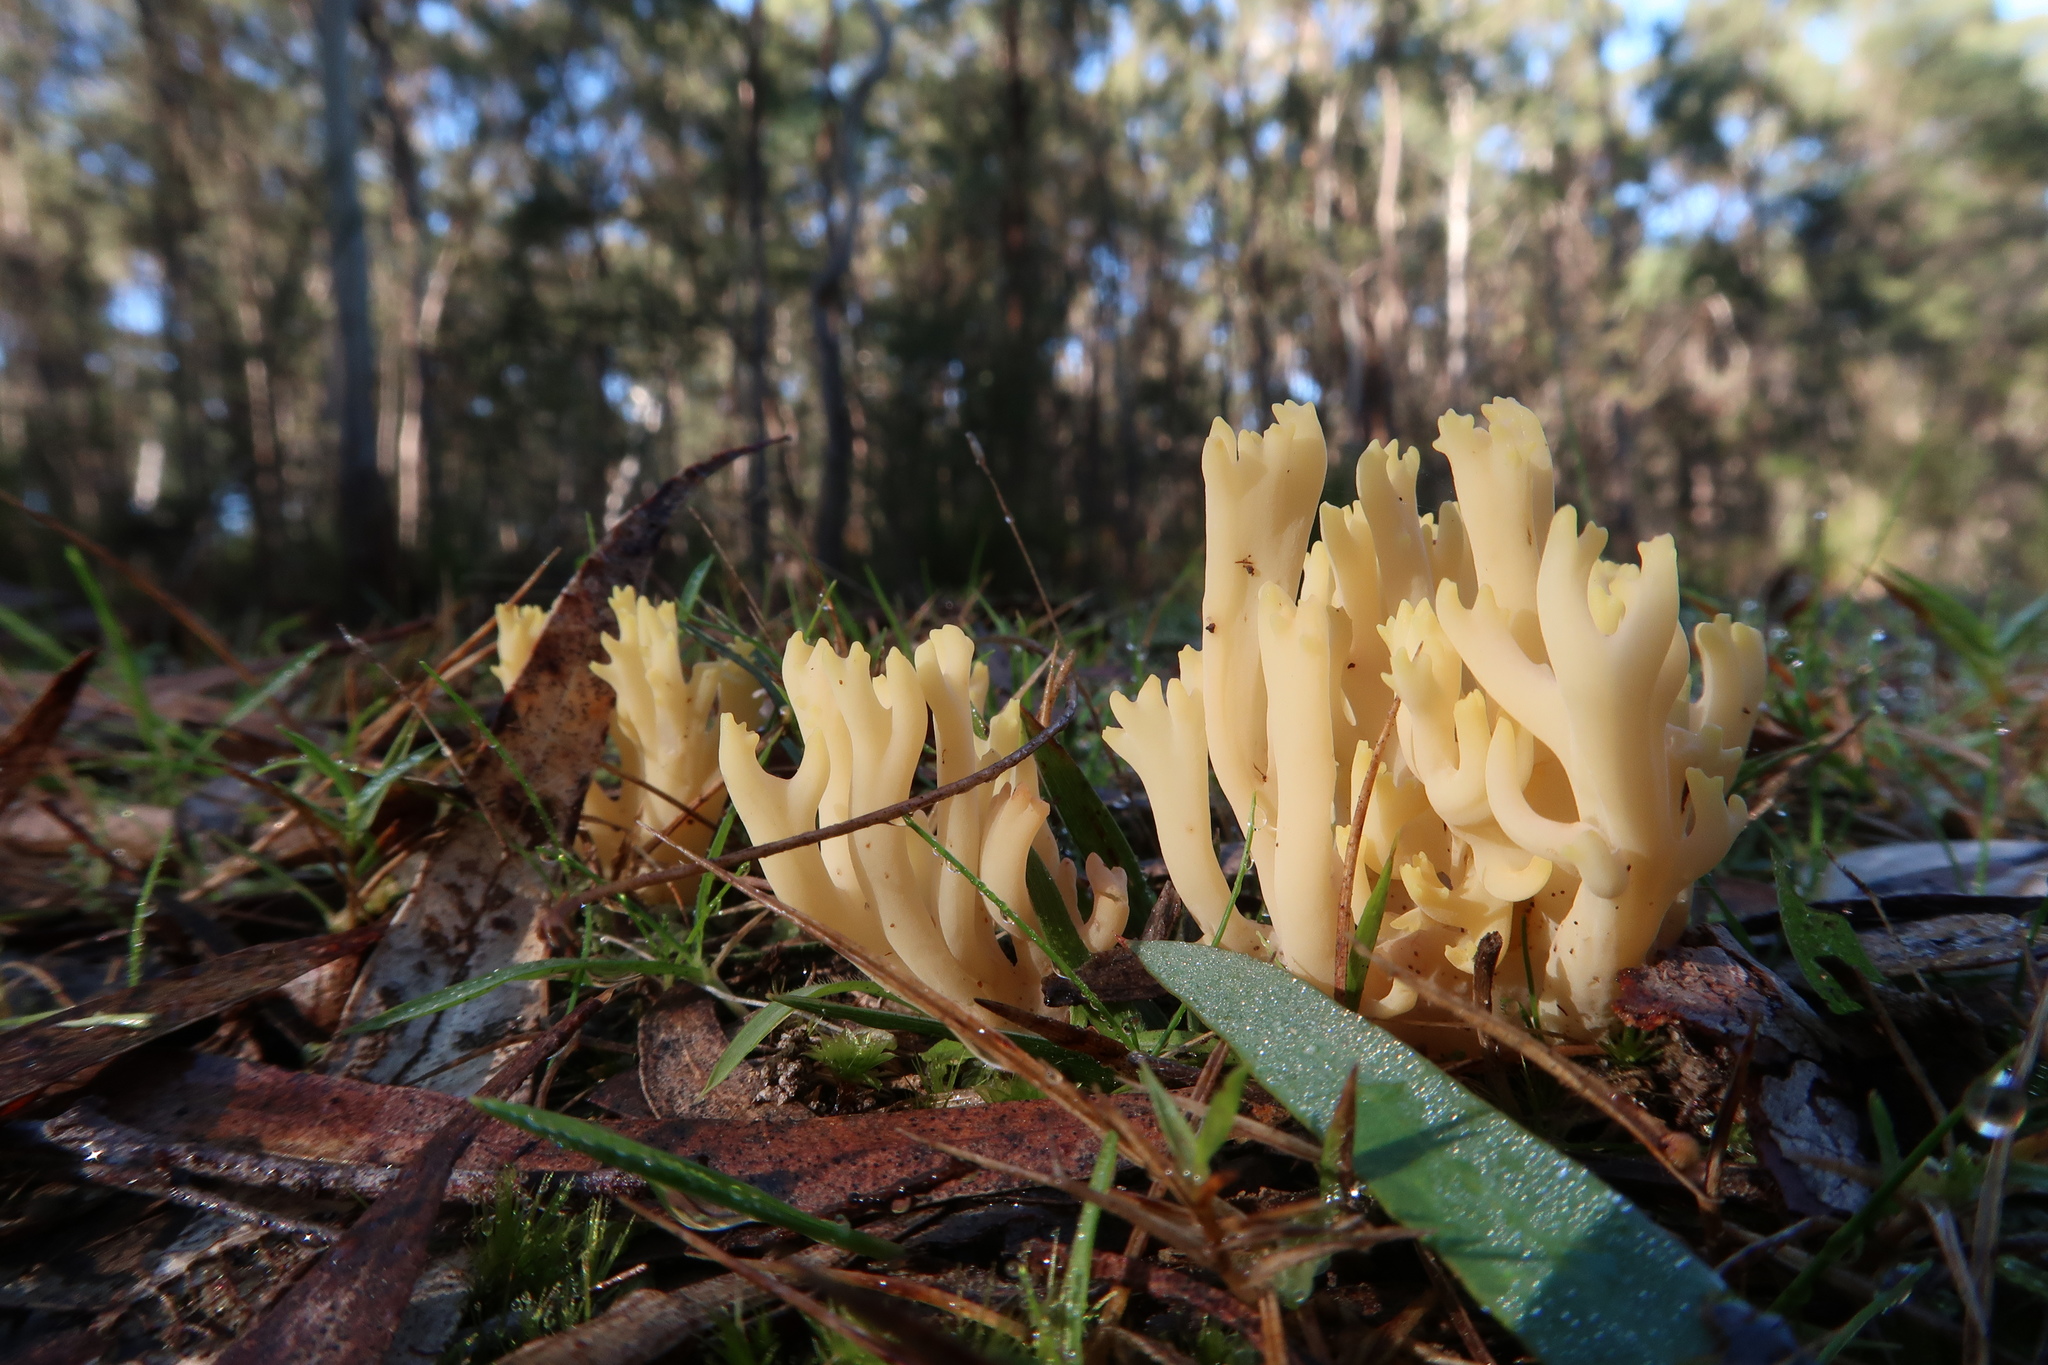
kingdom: Fungi
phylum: Basidiomycota
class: Agaricomycetes
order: Gomphales
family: Gomphaceae
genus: Ramaria
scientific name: Ramaria lorithamnus
